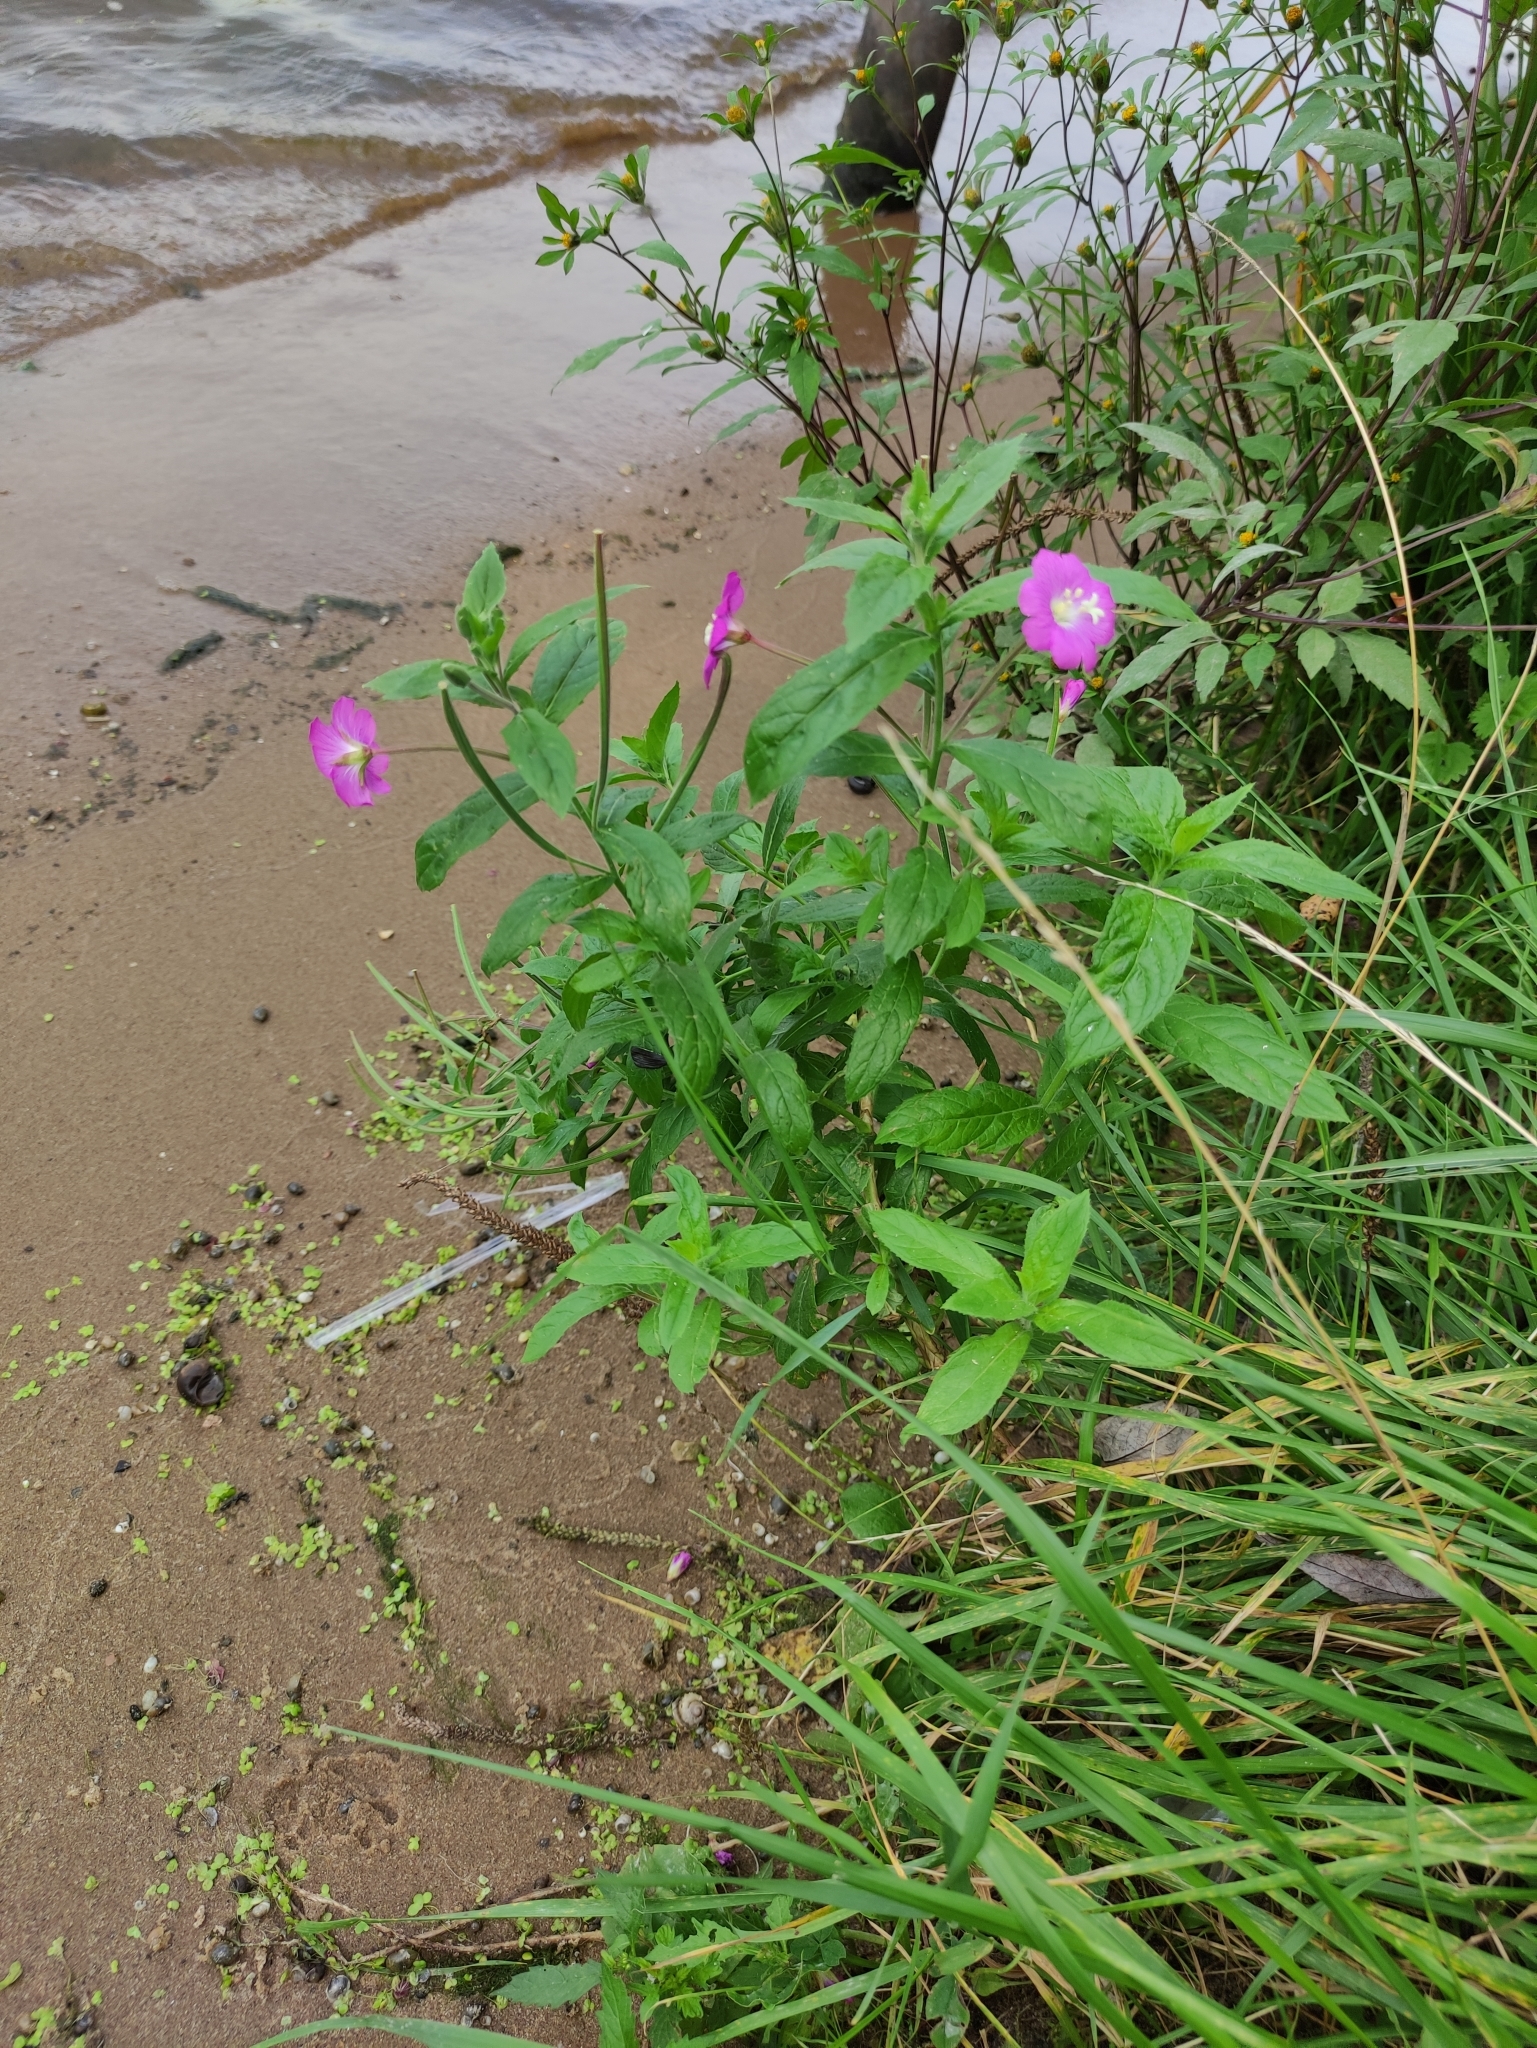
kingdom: Plantae
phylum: Tracheophyta
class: Magnoliopsida
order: Myrtales
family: Onagraceae
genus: Epilobium
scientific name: Epilobium hirsutum
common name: Great willowherb
